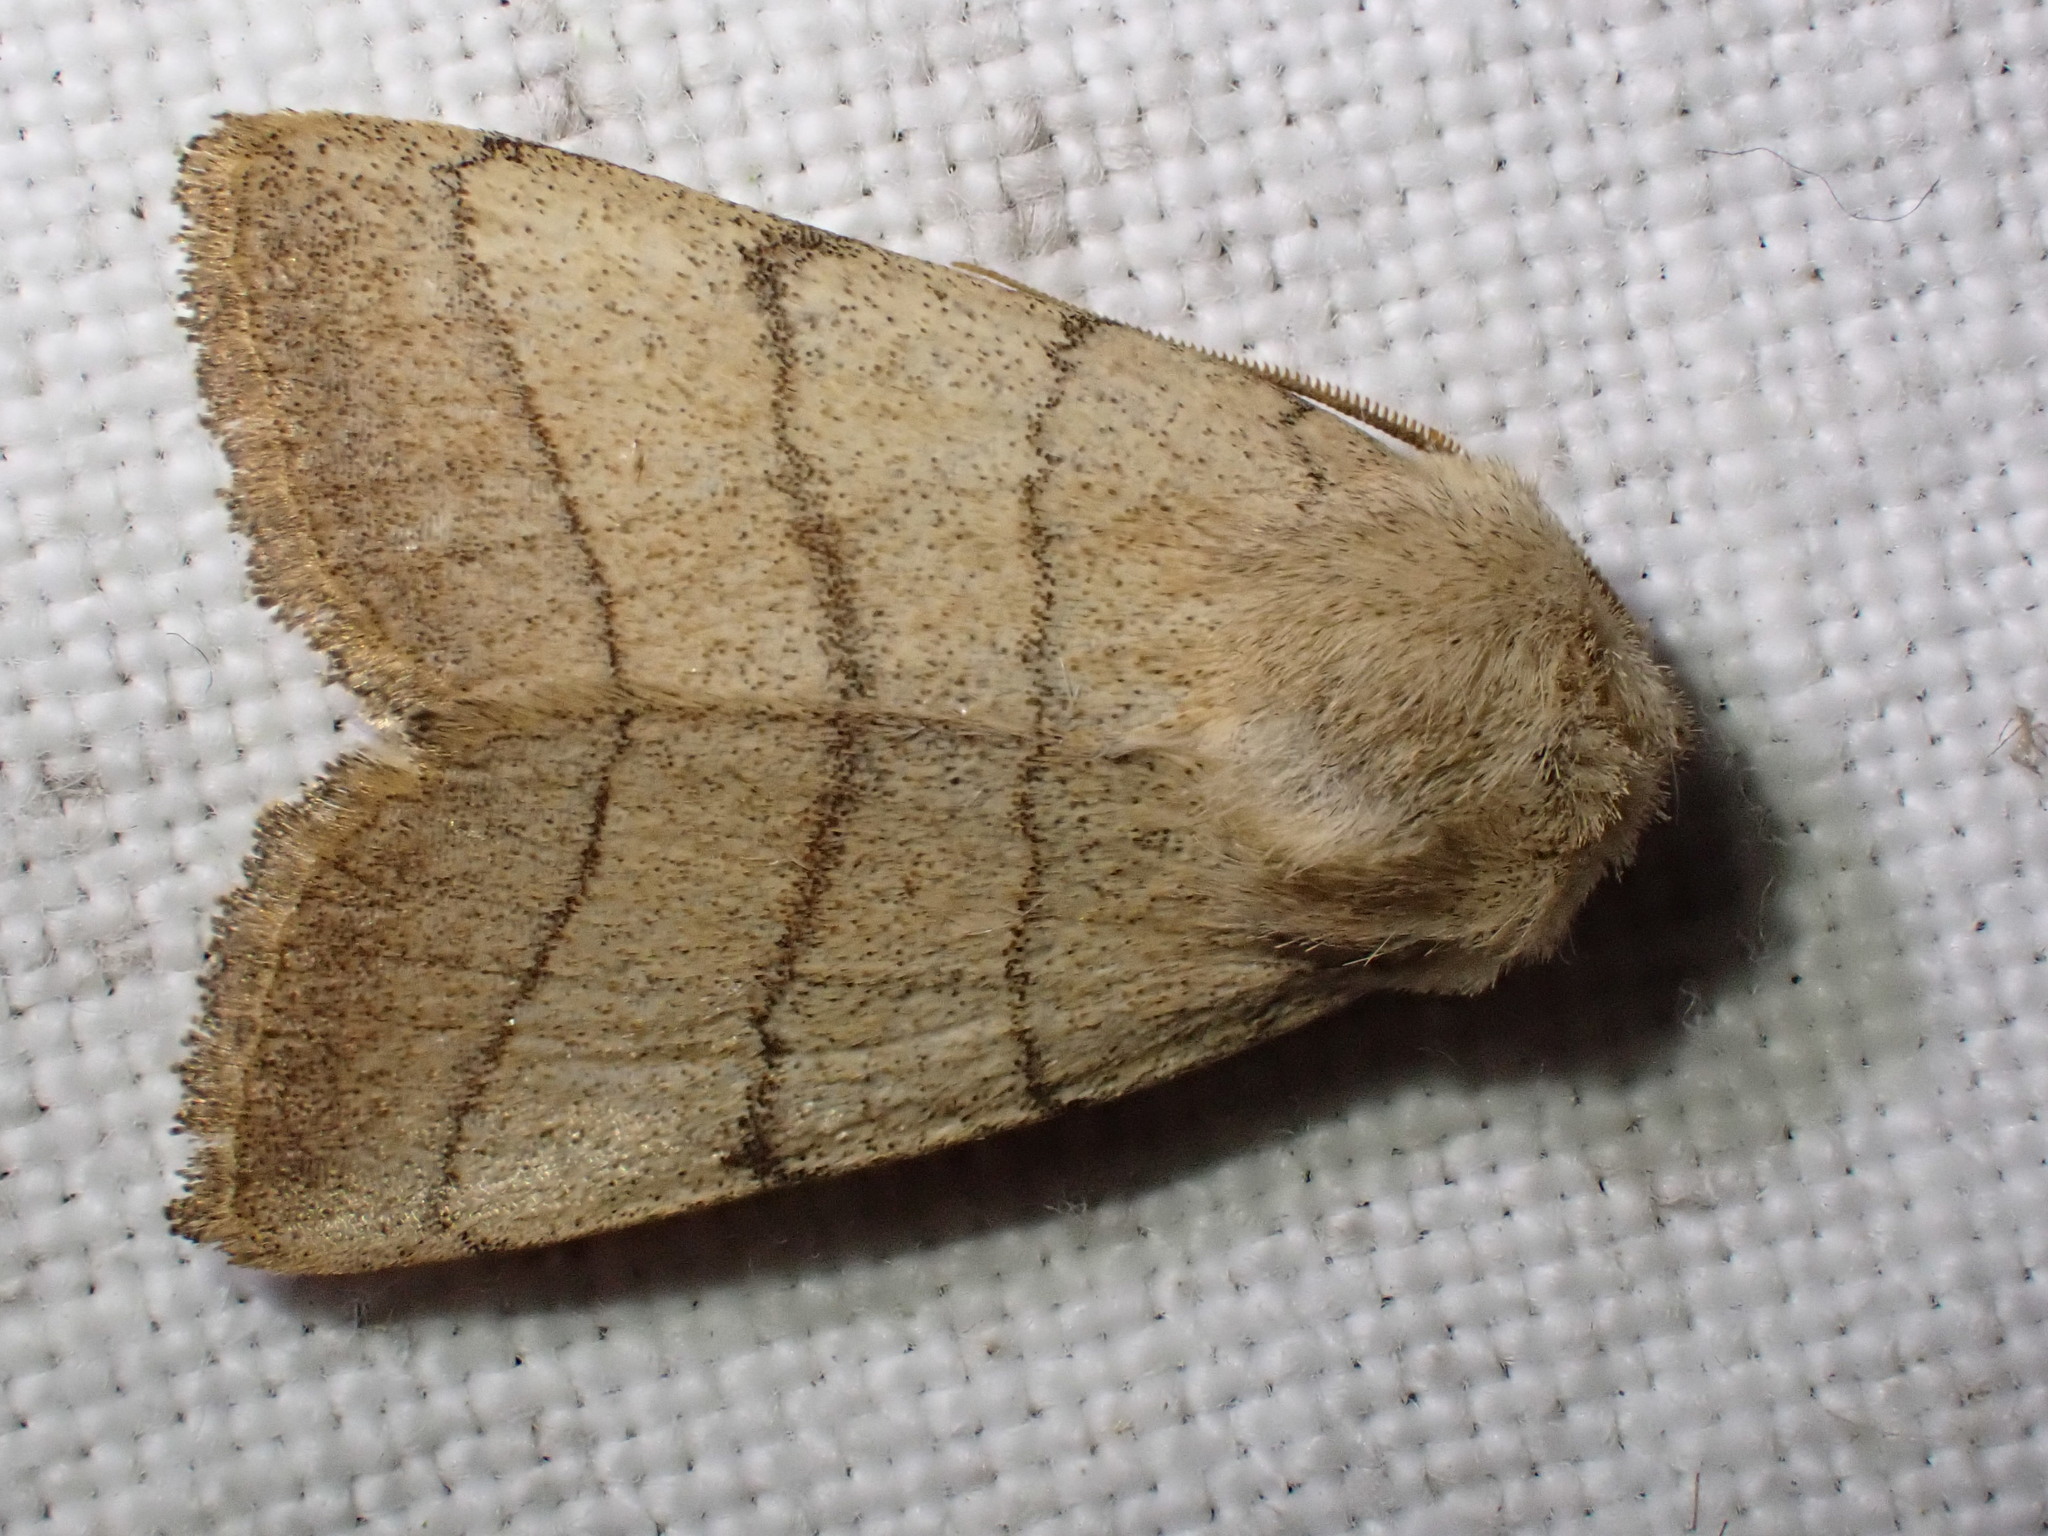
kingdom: Animalia
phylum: Arthropoda
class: Insecta
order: Lepidoptera
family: Noctuidae
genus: Charanyca
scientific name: Charanyca trigrammica
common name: Treble lines
